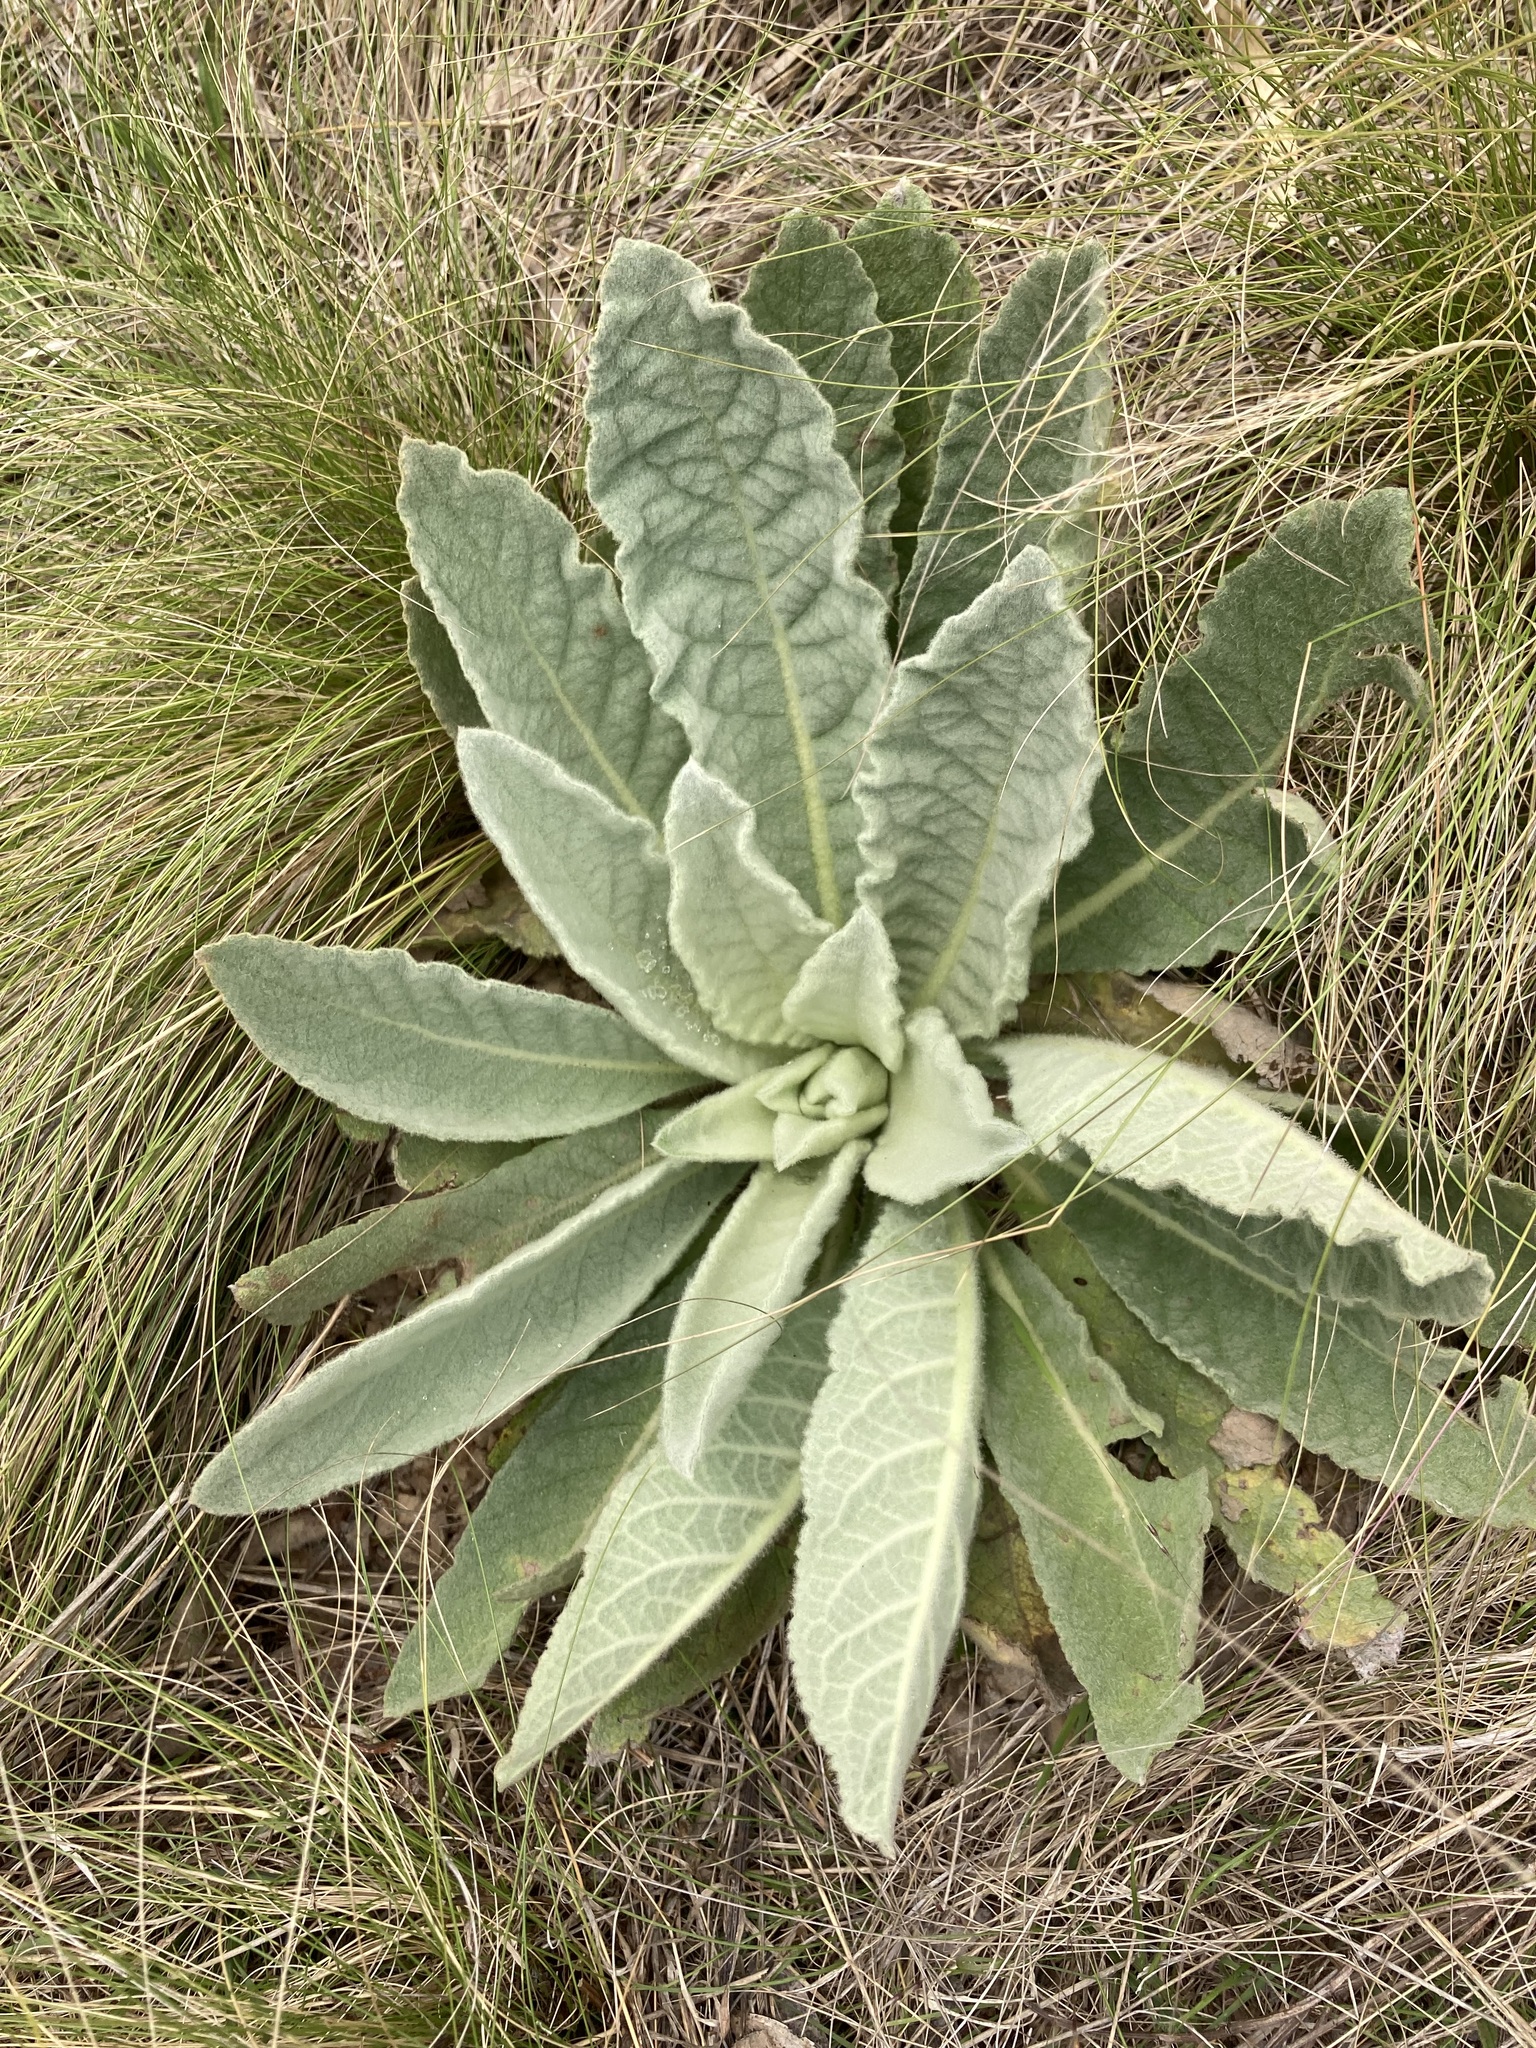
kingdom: Plantae
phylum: Tracheophyta
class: Magnoliopsida
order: Lamiales
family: Scrophulariaceae
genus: Verbascum
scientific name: Verbascum thapsus
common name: Common mullein
